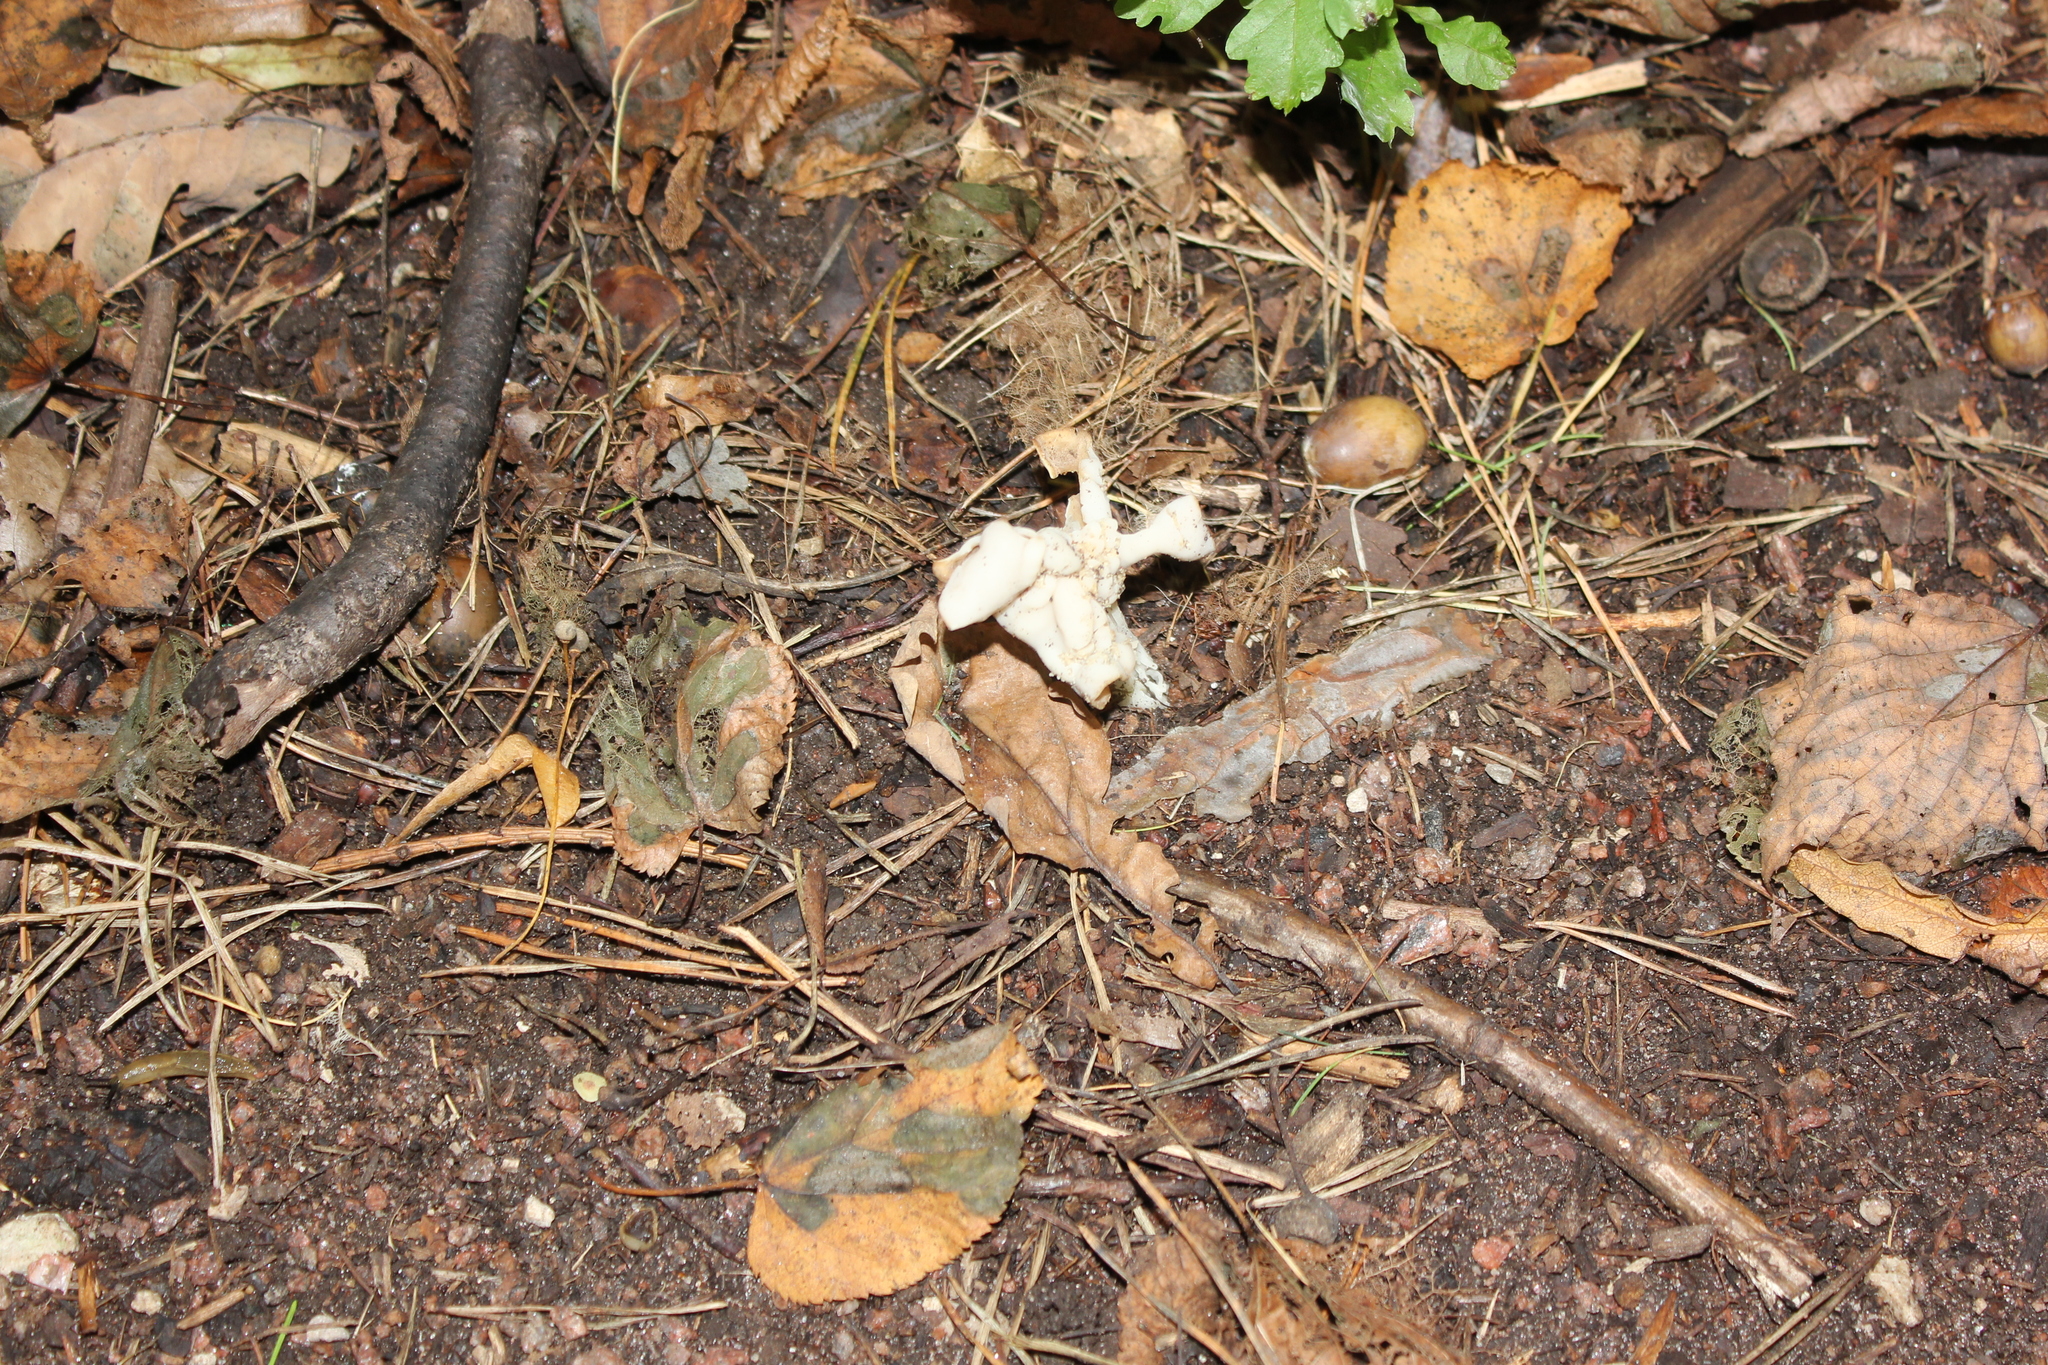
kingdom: Fungi
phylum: Ascomycota
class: Pezizomycetes
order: Pezizales
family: Helvellaceae
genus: Helvella
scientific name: Helvella crispa
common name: White saddle
